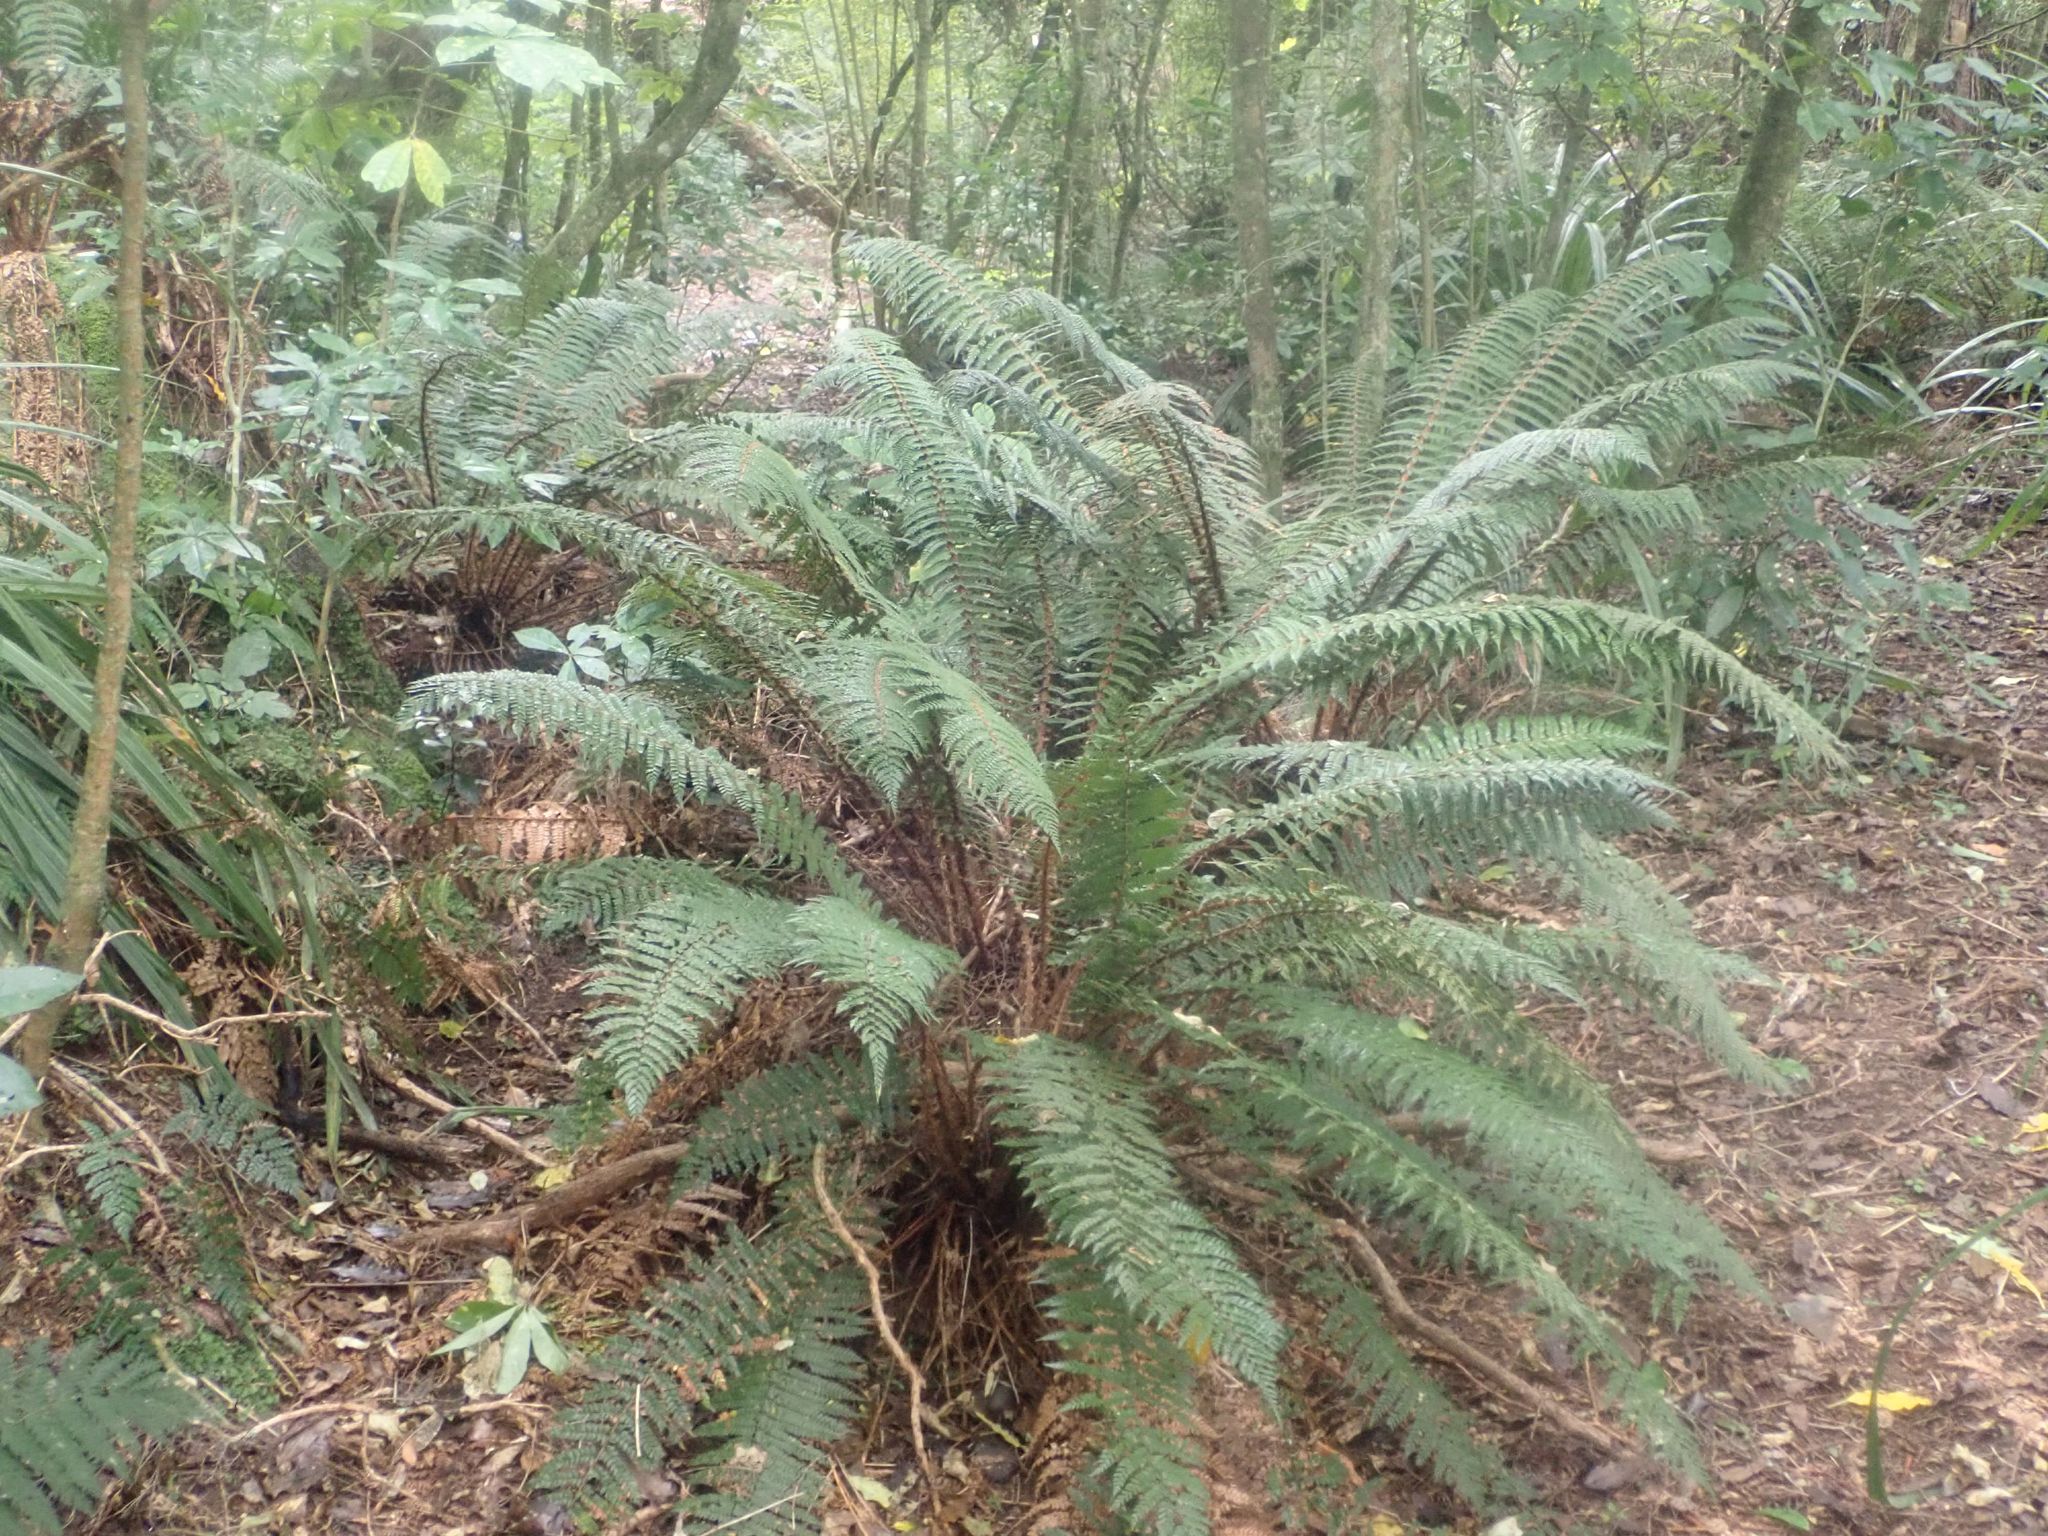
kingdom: Plantae
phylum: Tracheophyta
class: Polypodiopsida
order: Polypodiales
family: Dryopteridaceae
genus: Polystichum
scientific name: Polystichum vestitum
